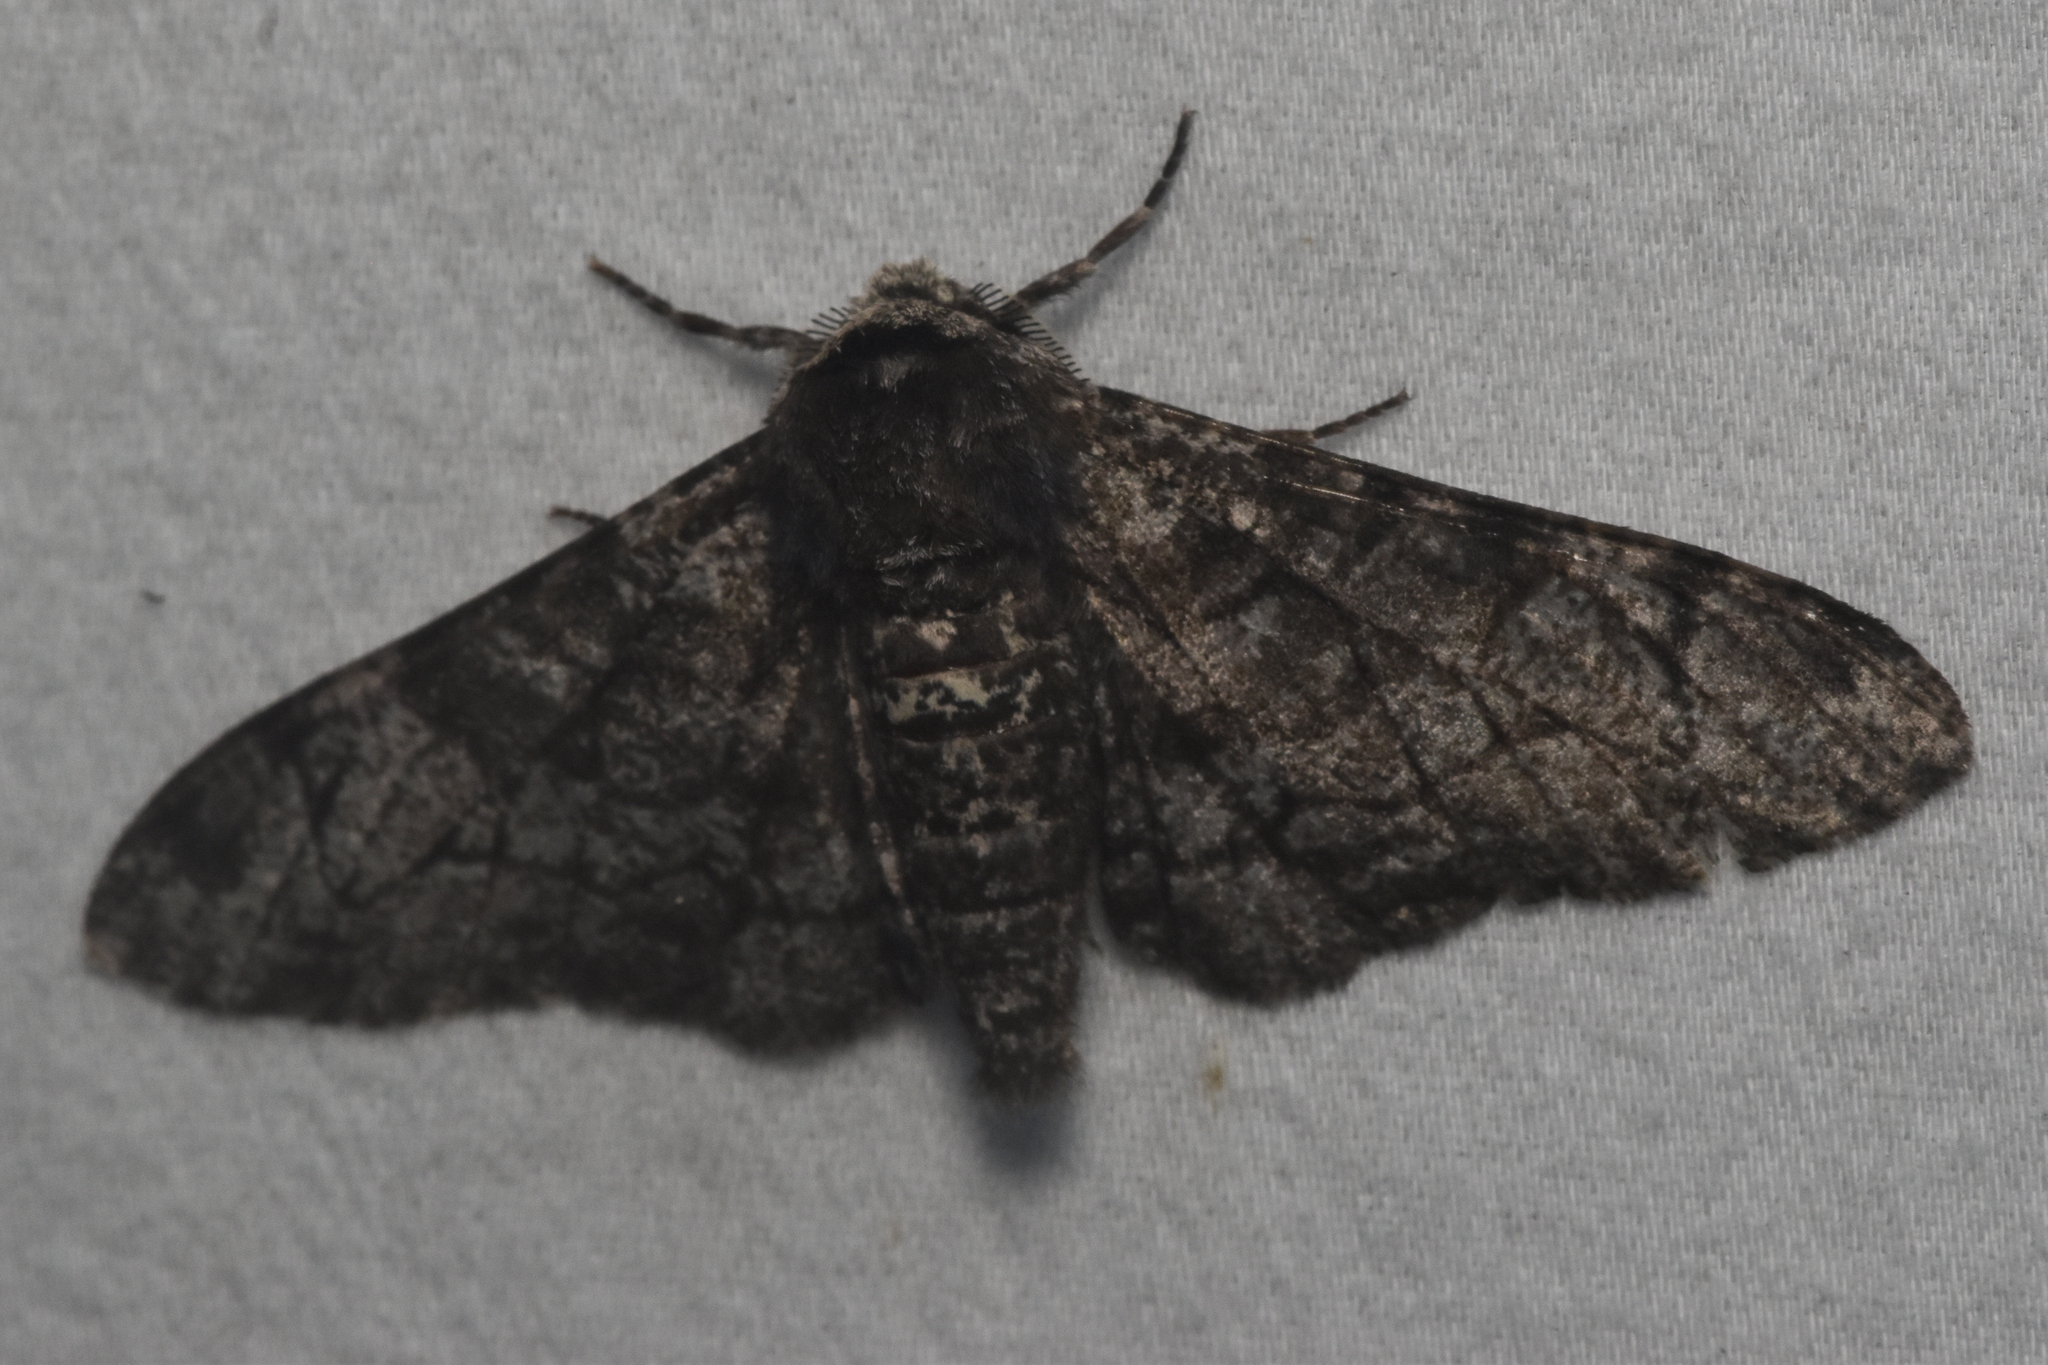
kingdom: Animalia
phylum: Arthropoda
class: Insecta
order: Lepidoptera
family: Geometridae
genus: Biston
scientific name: Biston betularia
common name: Peppered moth
